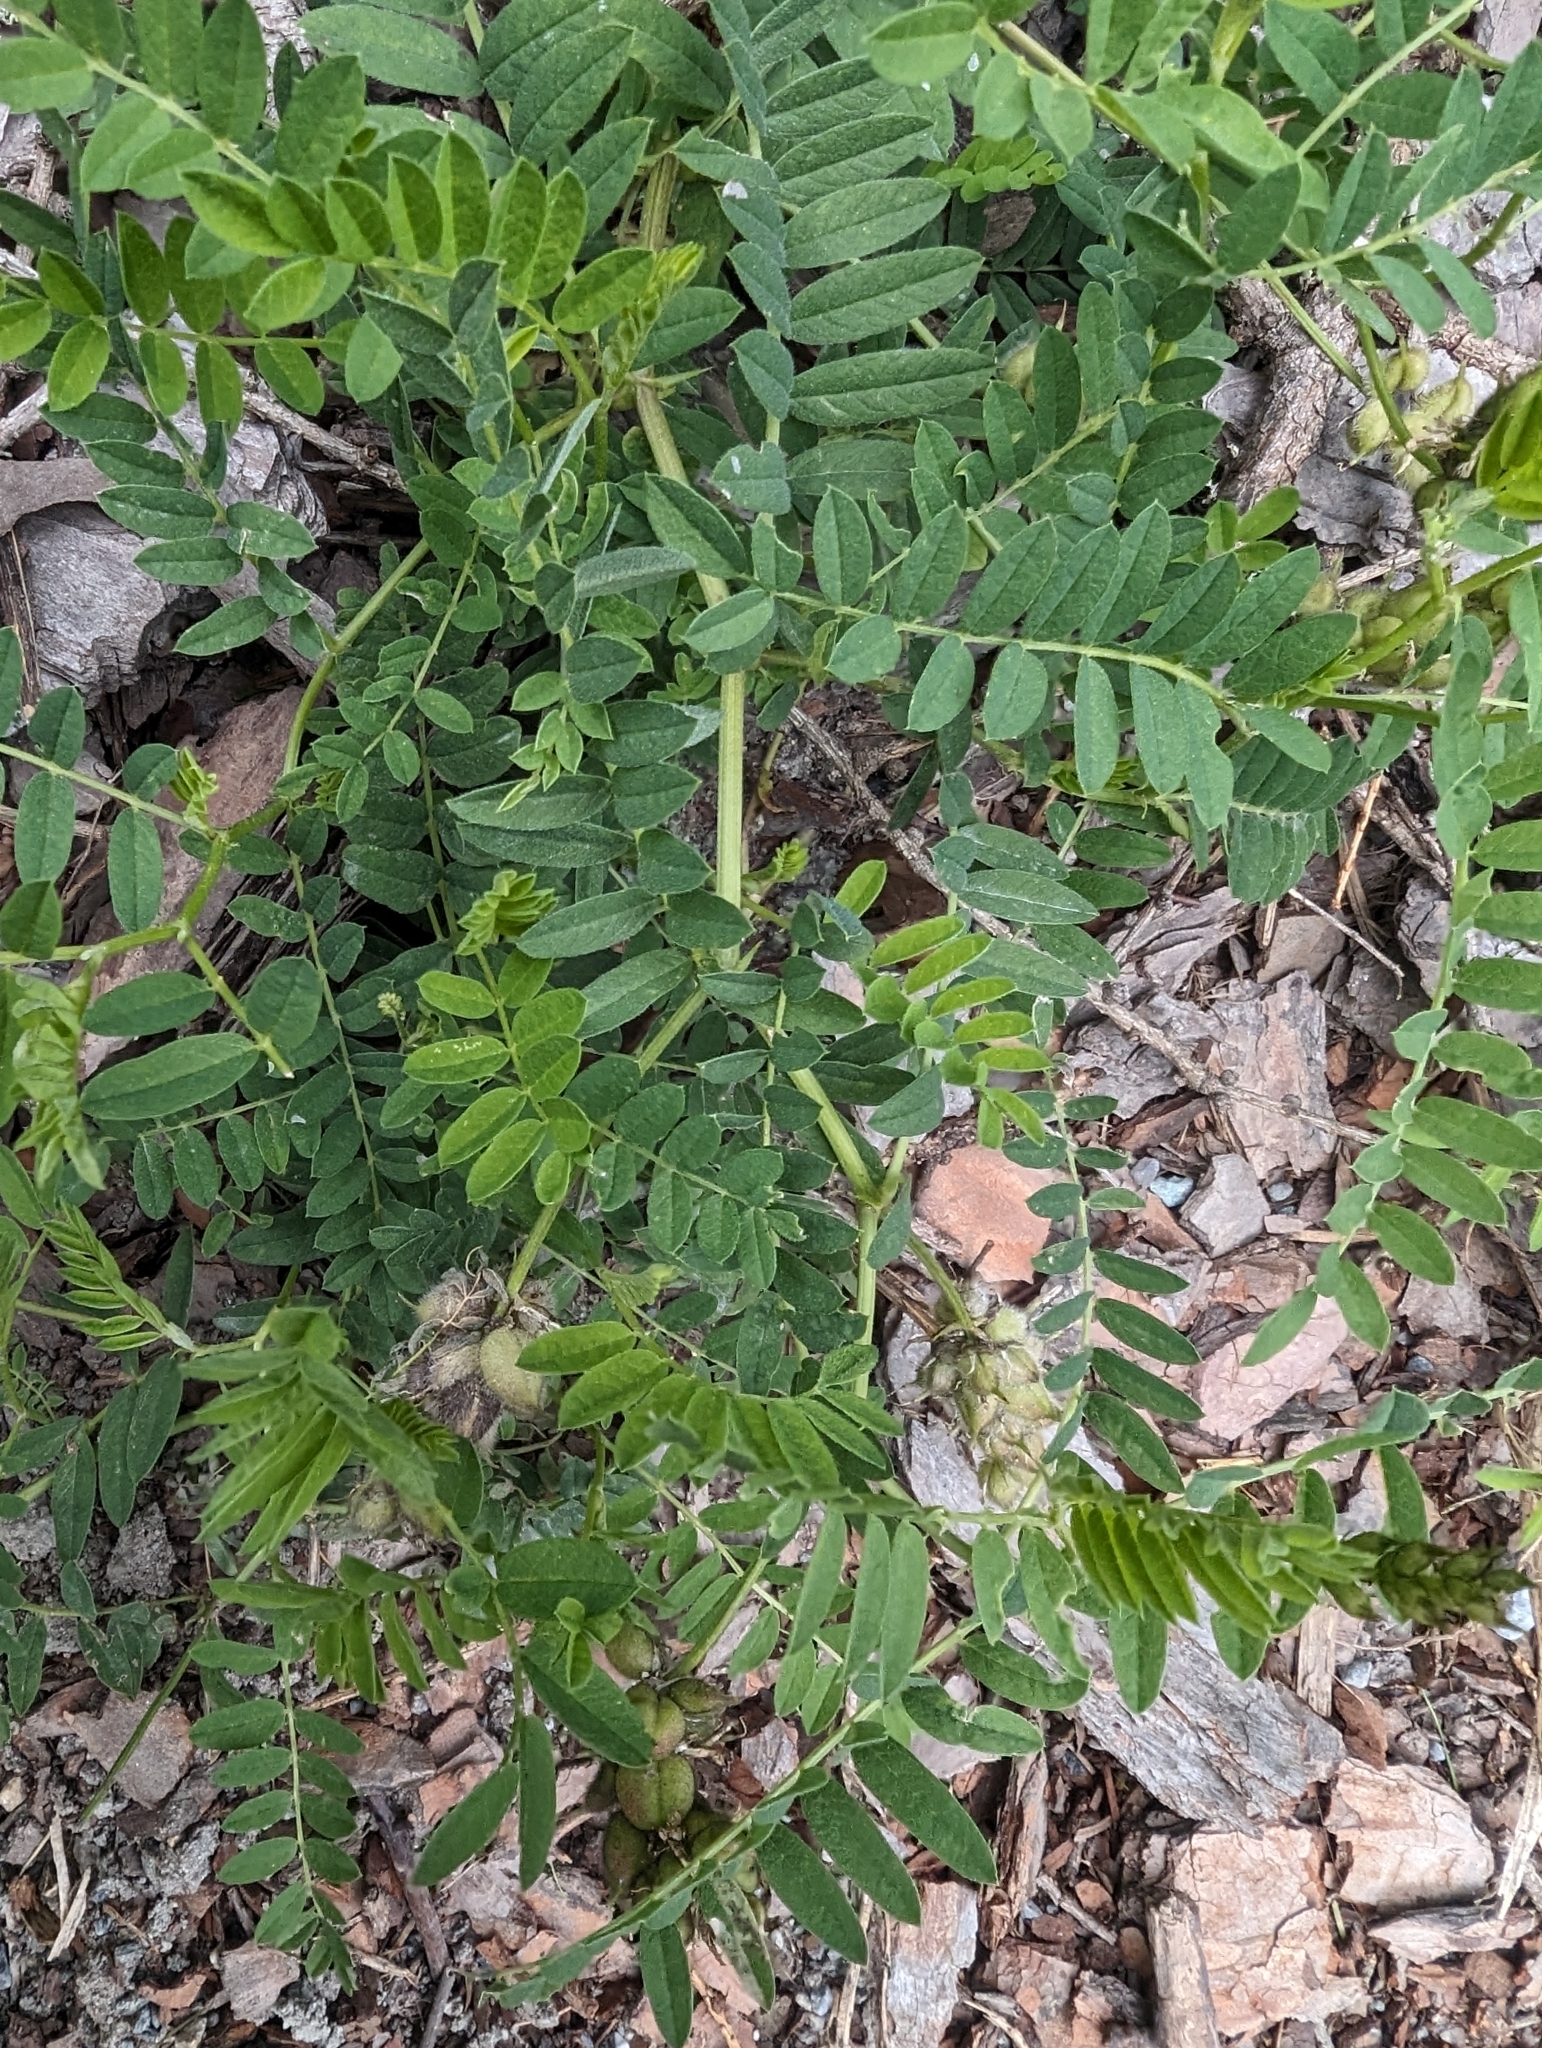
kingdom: Plantae
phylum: Tracheophyta
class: Magnoliopsida
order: Fabales
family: Fabaceae
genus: Astragalus
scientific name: Astragalus cicer
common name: Chick-pea milk-vetch
